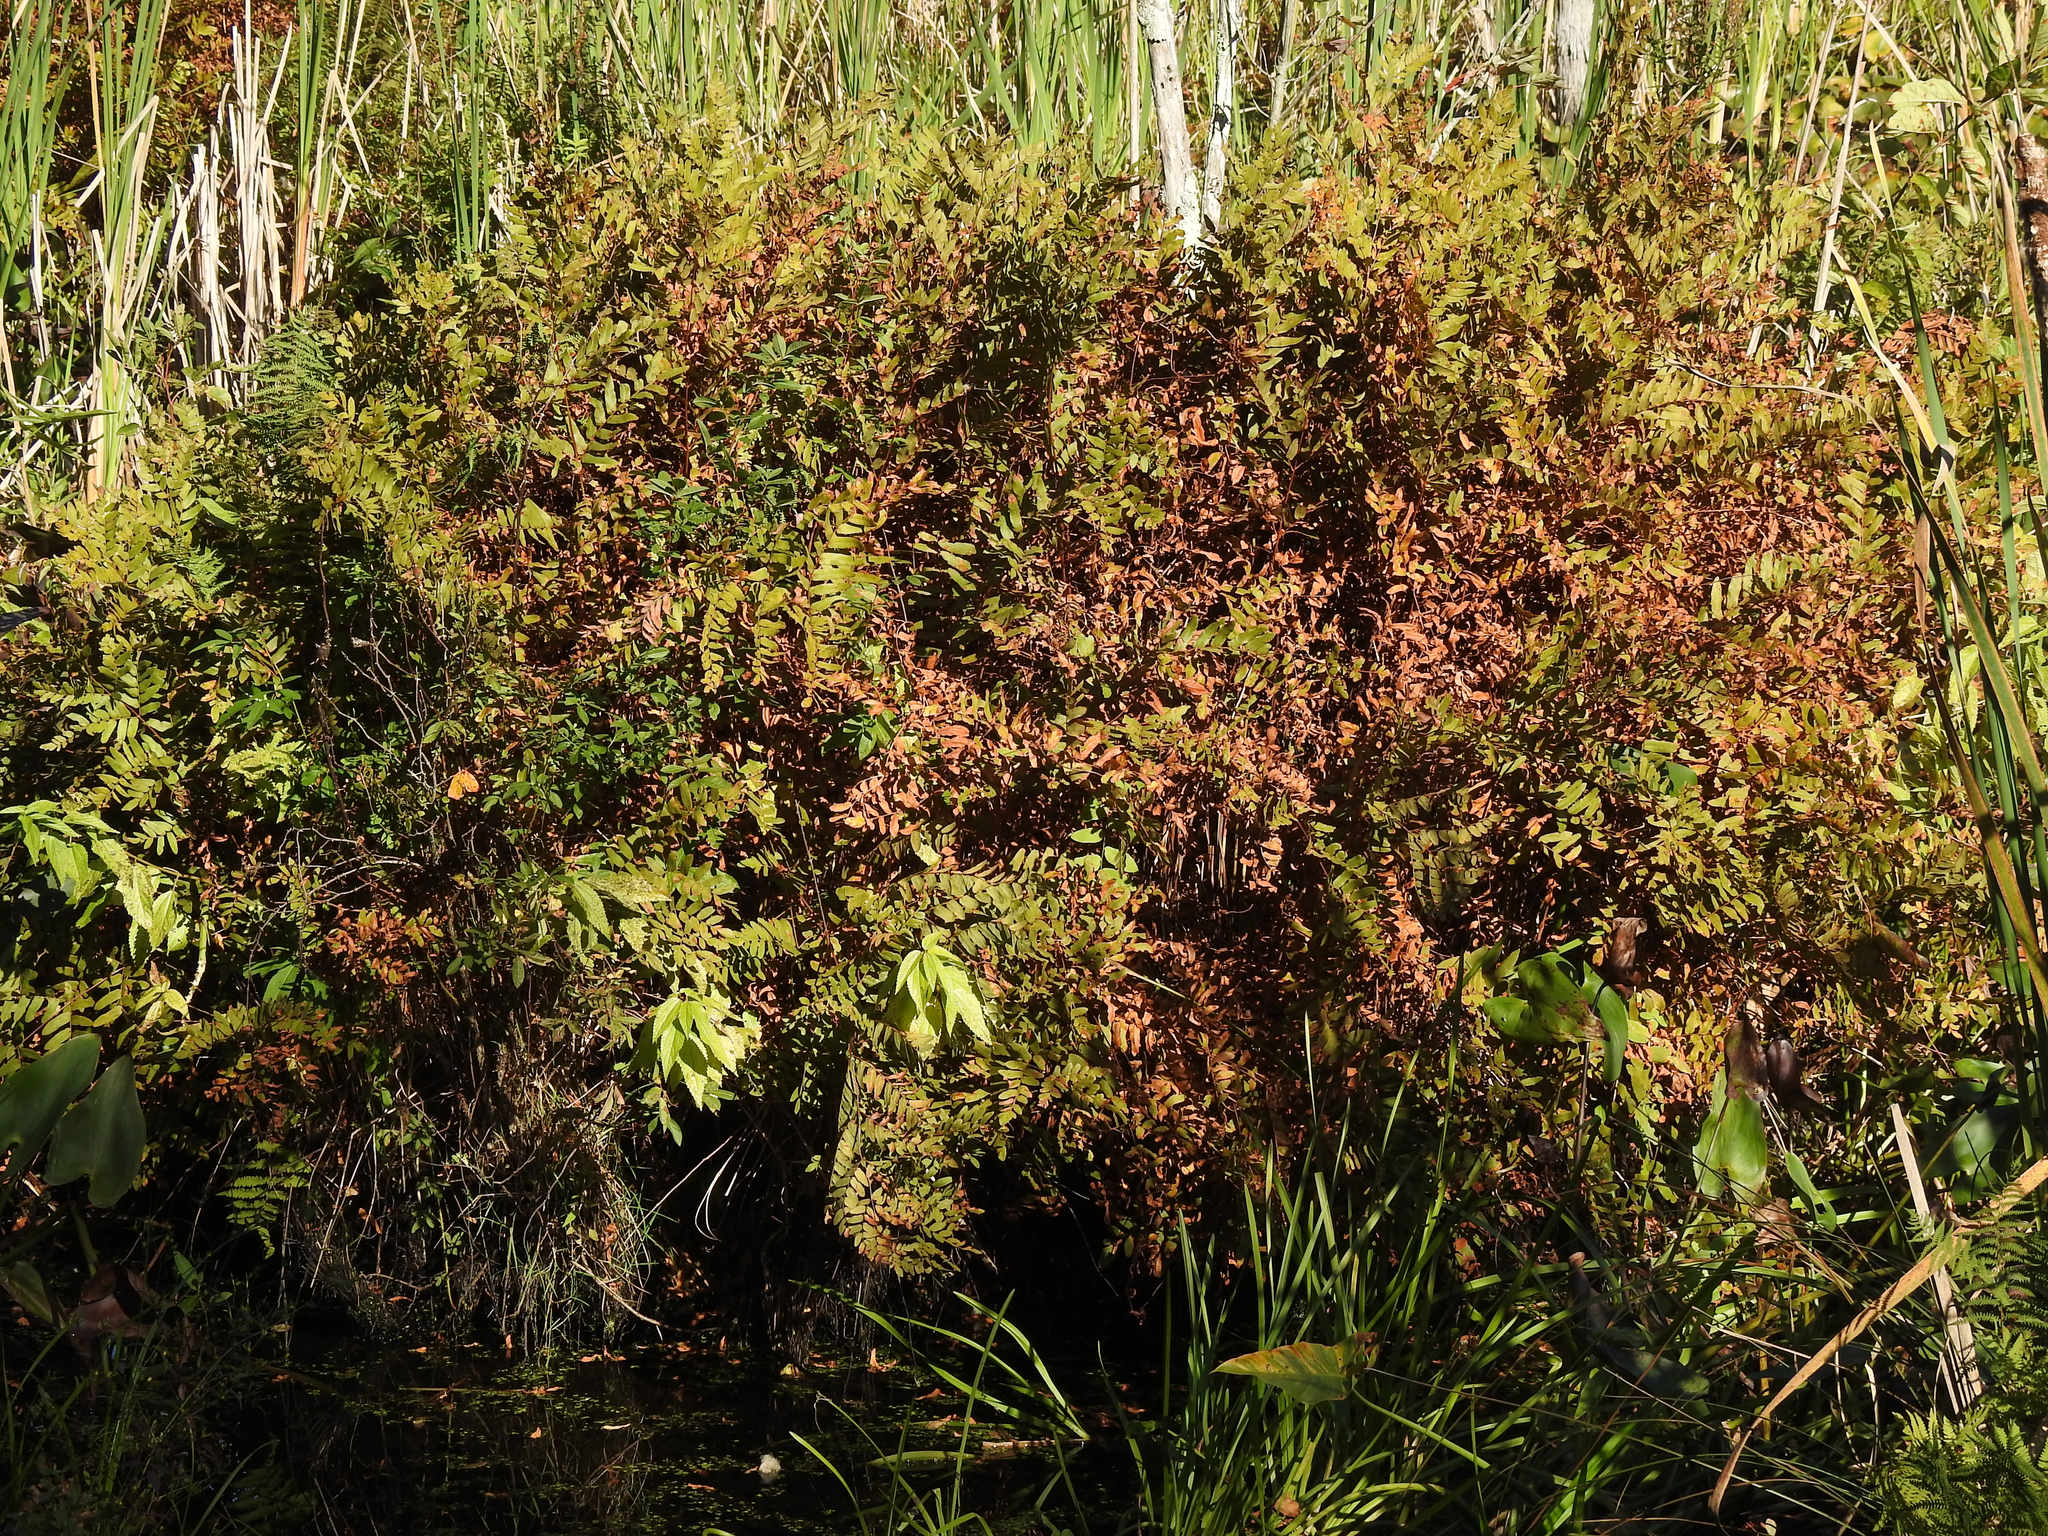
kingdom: Plantae
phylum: Tracheophyta
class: Polypodiopsida
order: Osmundales
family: Osmundaceae
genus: Osmunda
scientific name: Osmunda spectabilis
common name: American royal fern
